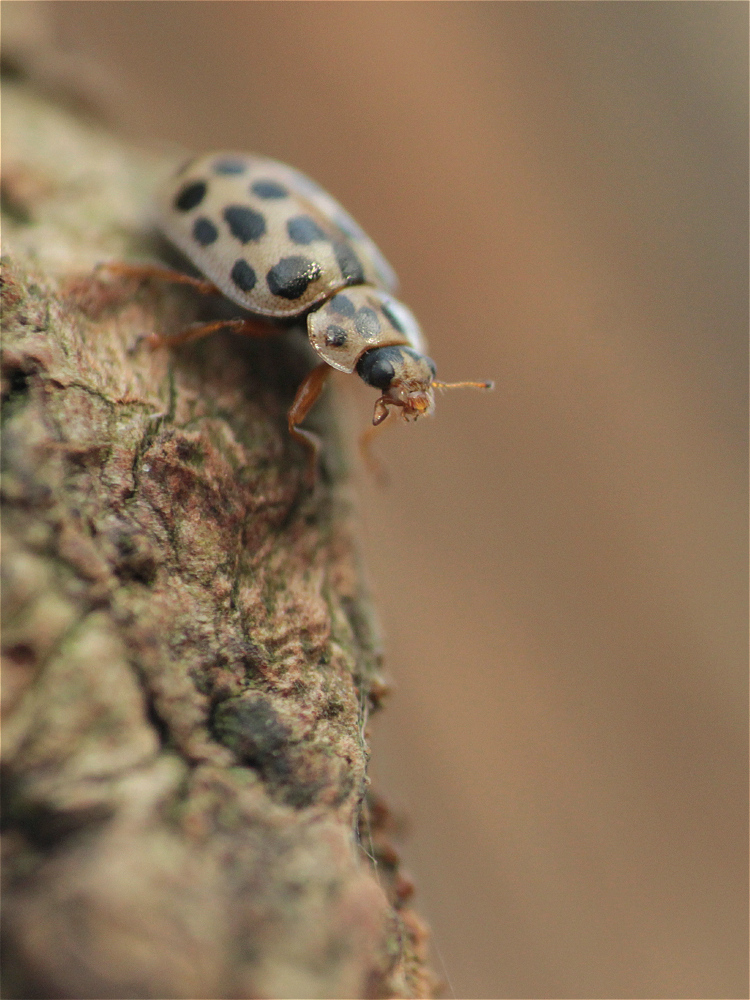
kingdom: Animalia
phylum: Arthropoda
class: Insecta
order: Coleoptera
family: Coccinellidae
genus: Anisosticta
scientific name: Anisosticta novemdecimpunctata
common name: Water ladybird
